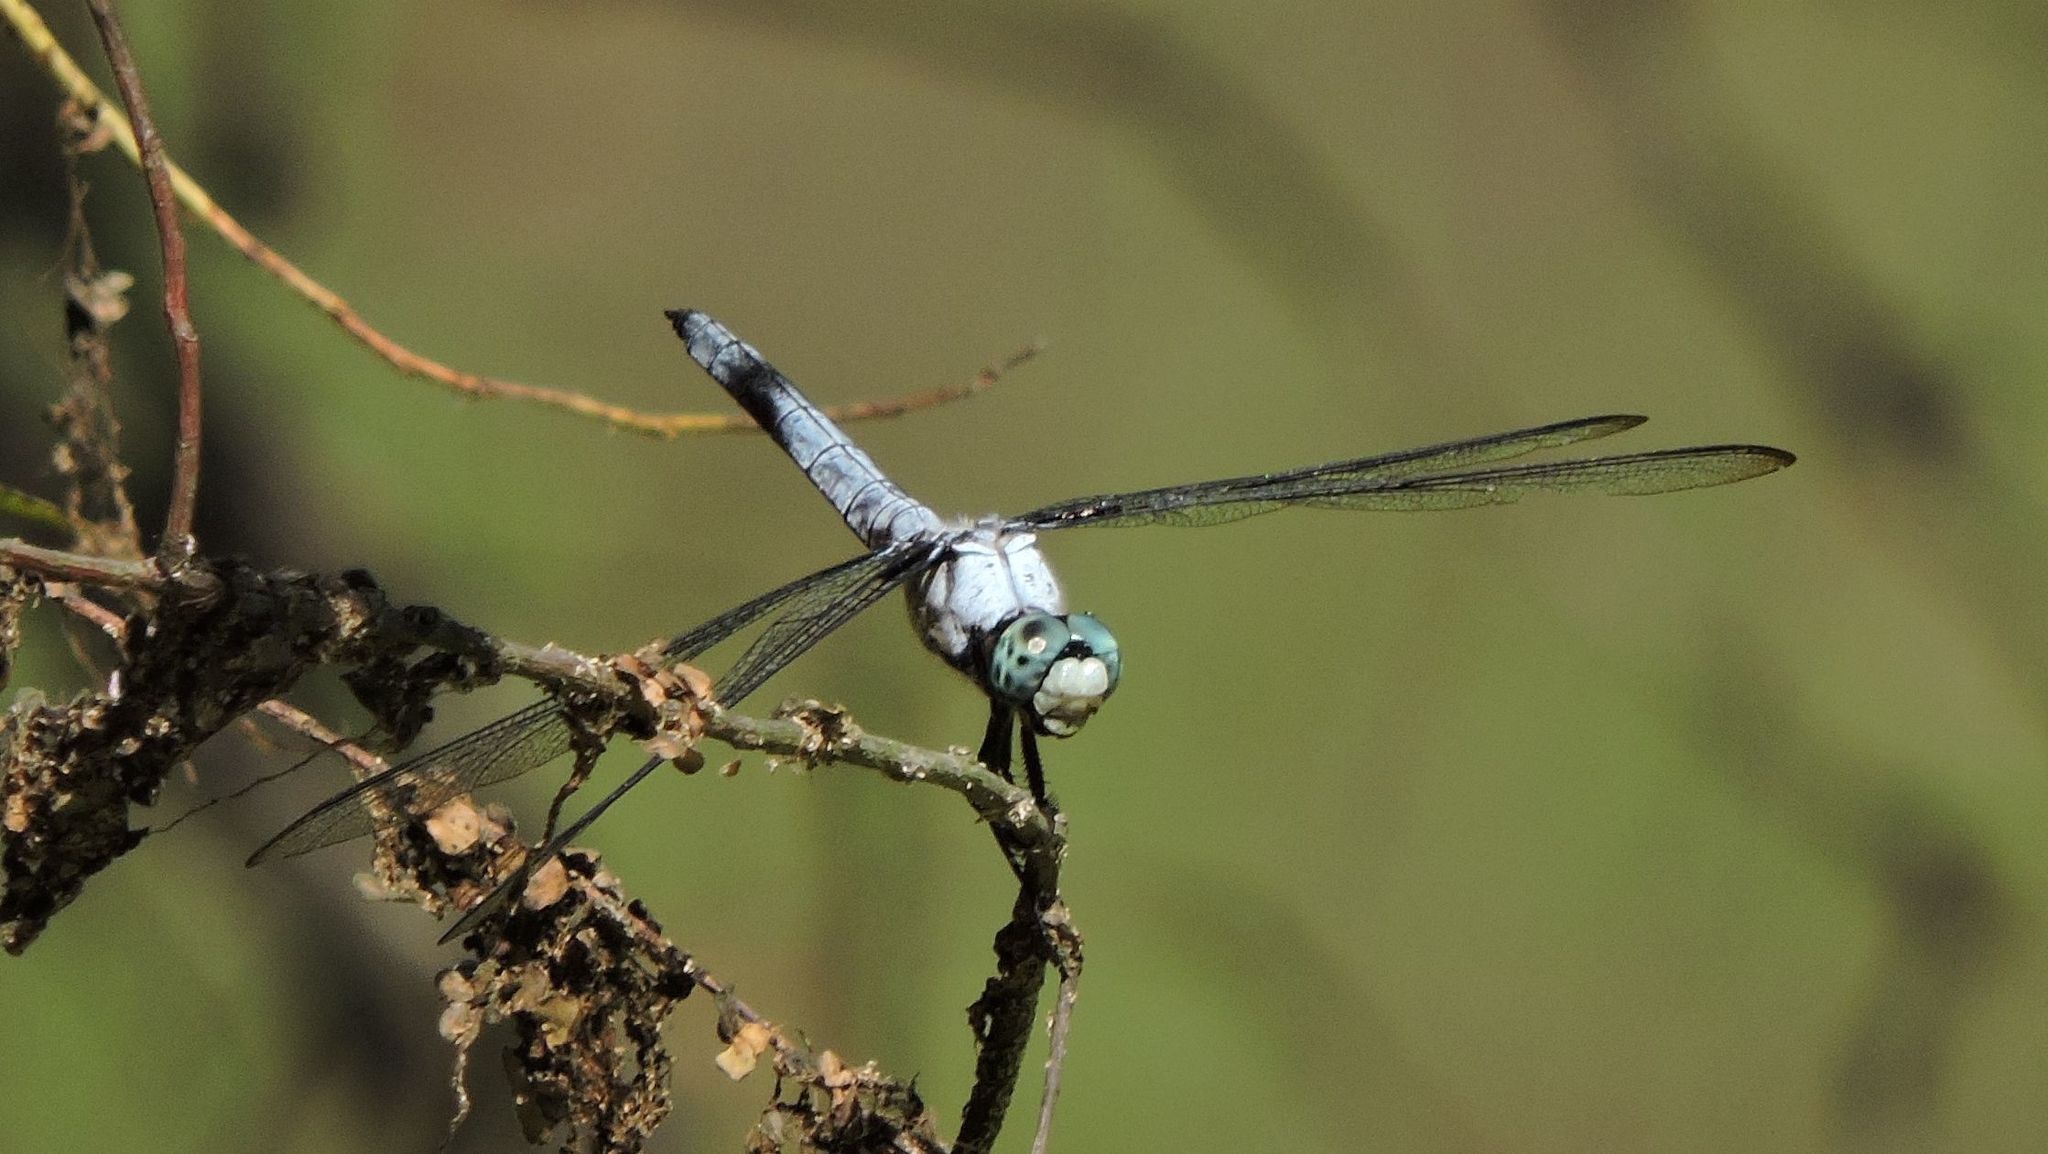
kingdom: Animalia
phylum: Arthropoda
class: Insecta
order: Odonata
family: Libellulidae
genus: Libellula
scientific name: Libellula vibrans
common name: Great blue skimmer
